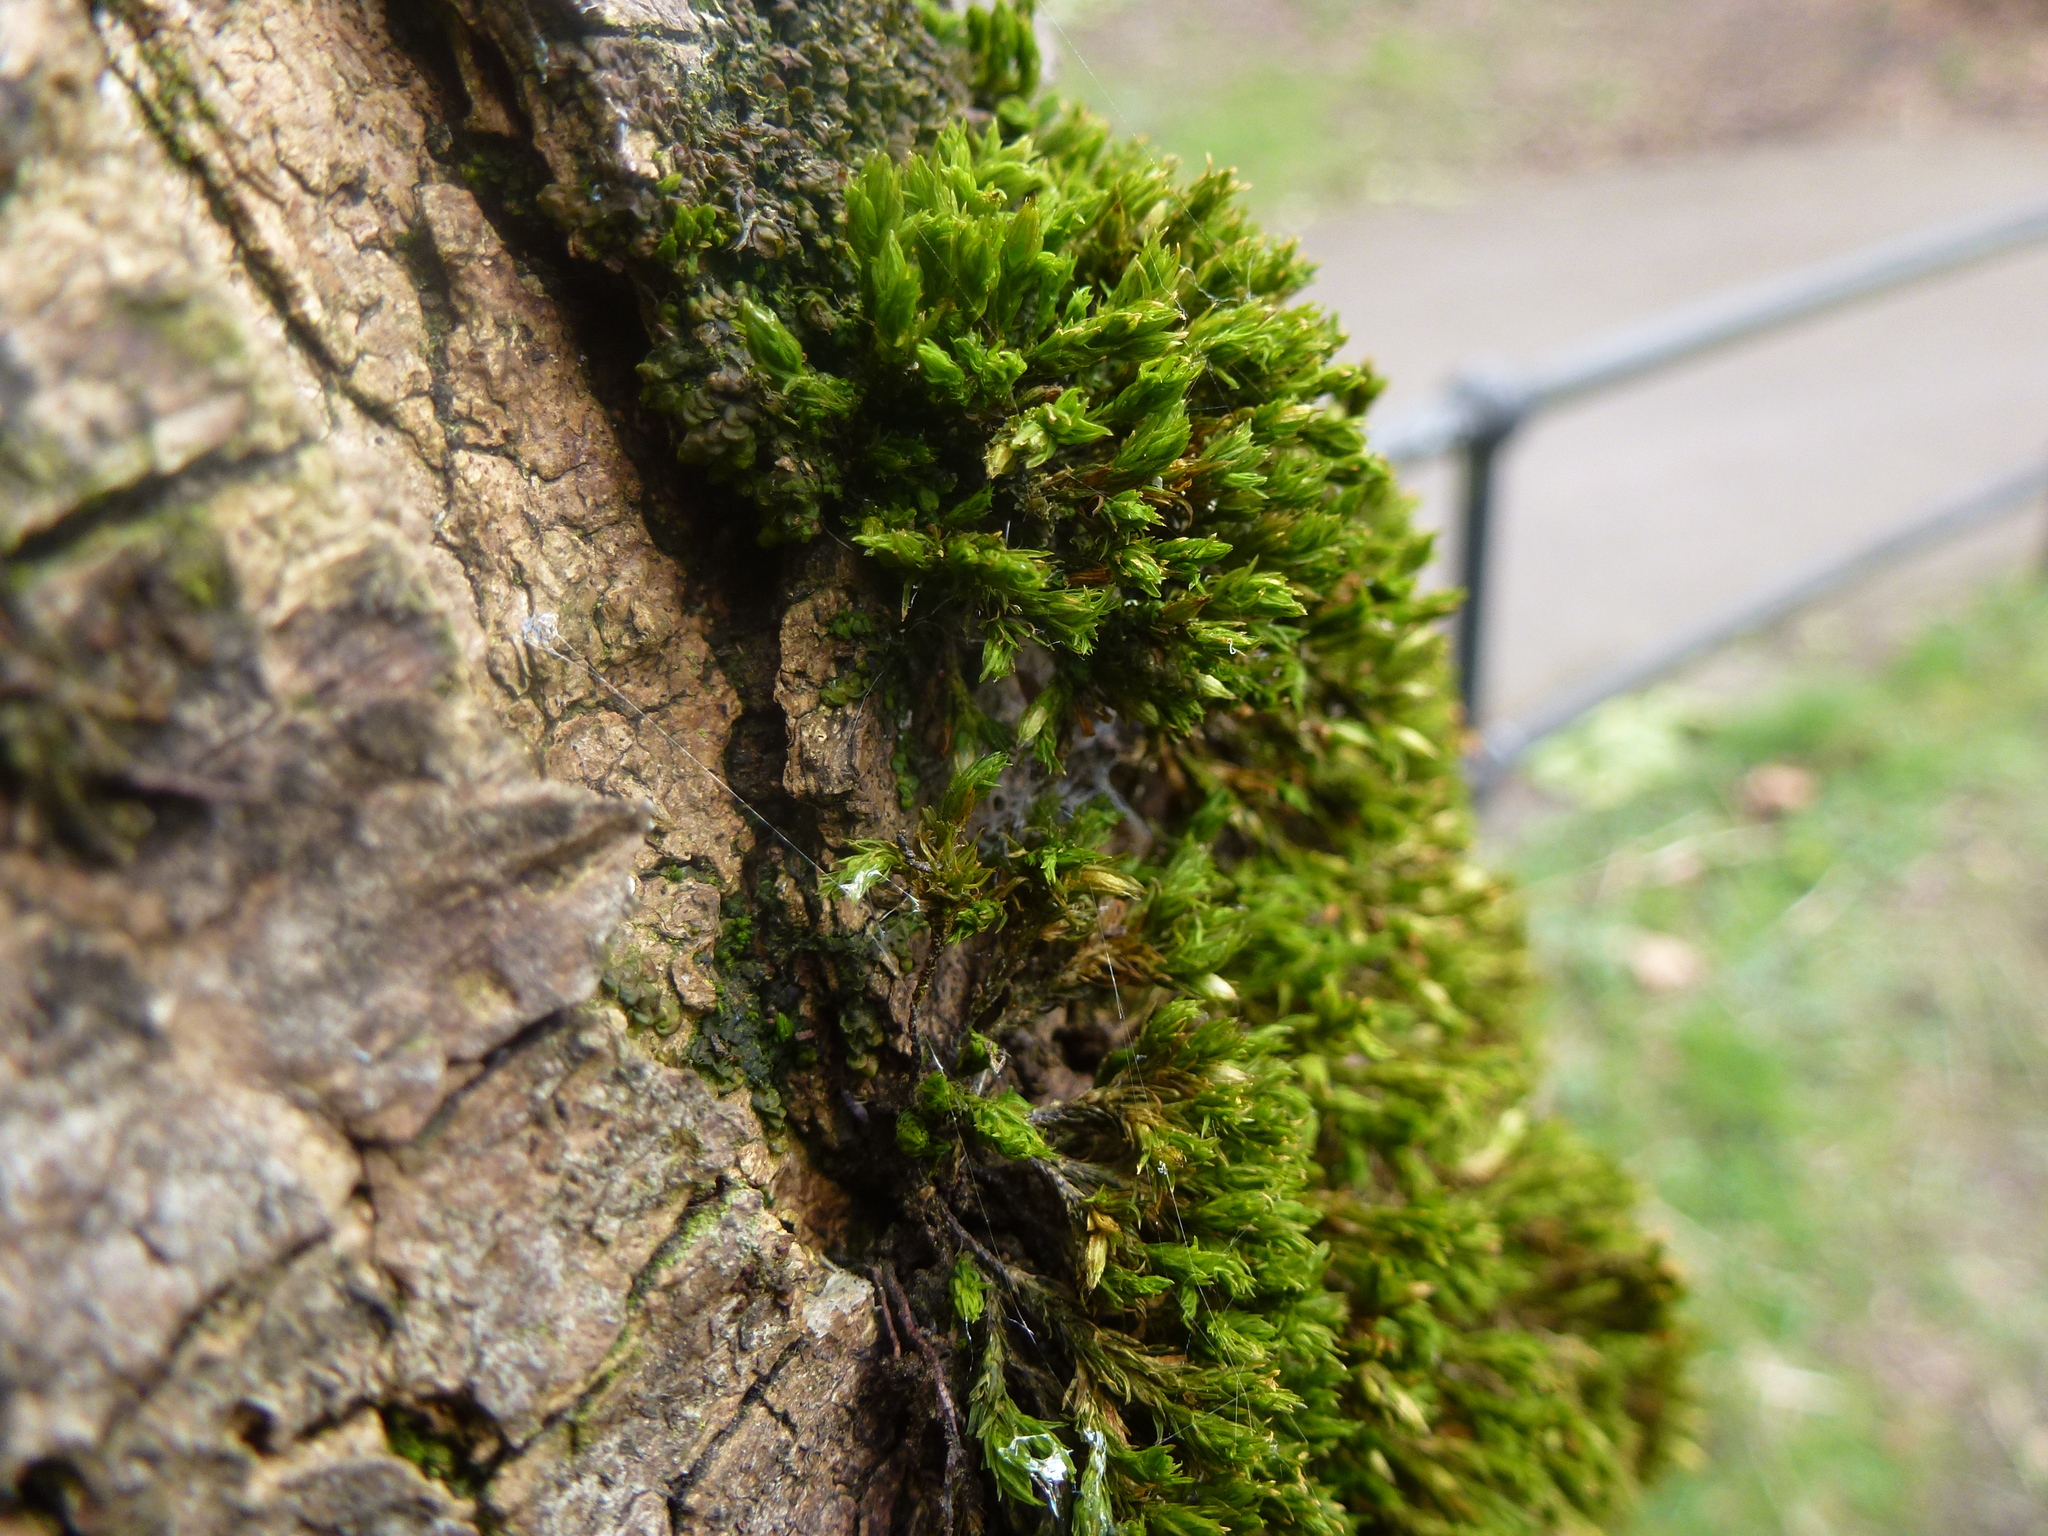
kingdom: Plantae
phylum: Bryophyta
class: Bryopsida
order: Orthotrichales
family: Orthotrichaceae
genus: Lewinskya
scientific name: Lewinskya affinis
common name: Wood bristle-moss
